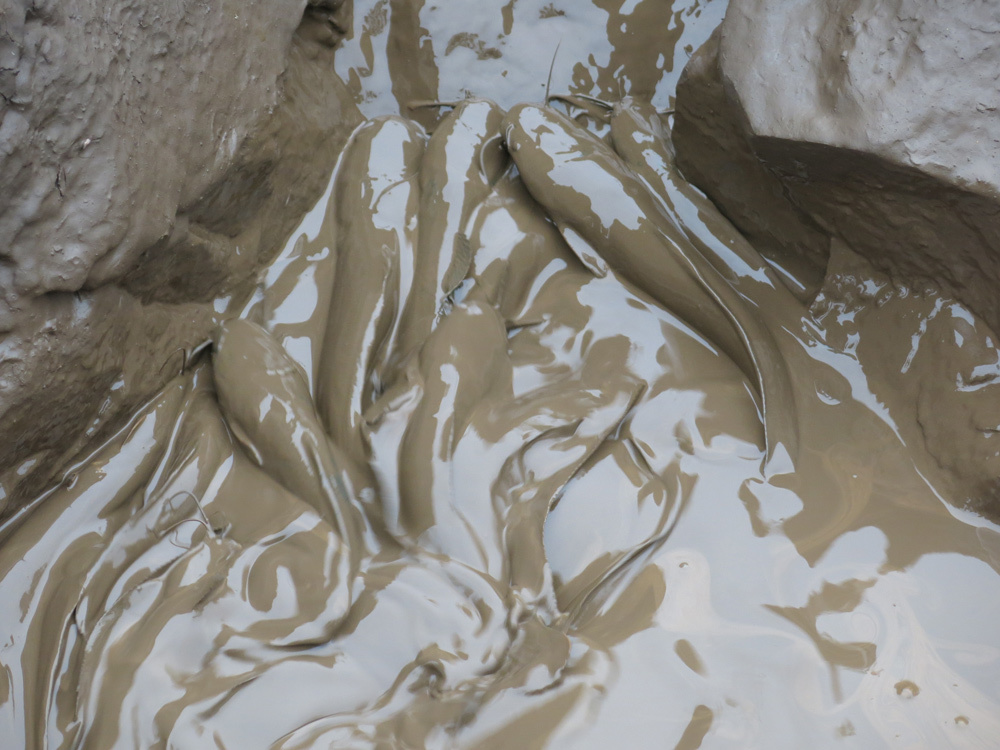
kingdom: Animalia
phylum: Chordata
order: Siluriformes
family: Clariidae
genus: Clarias
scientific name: Clarias gariepinus
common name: African catfish
